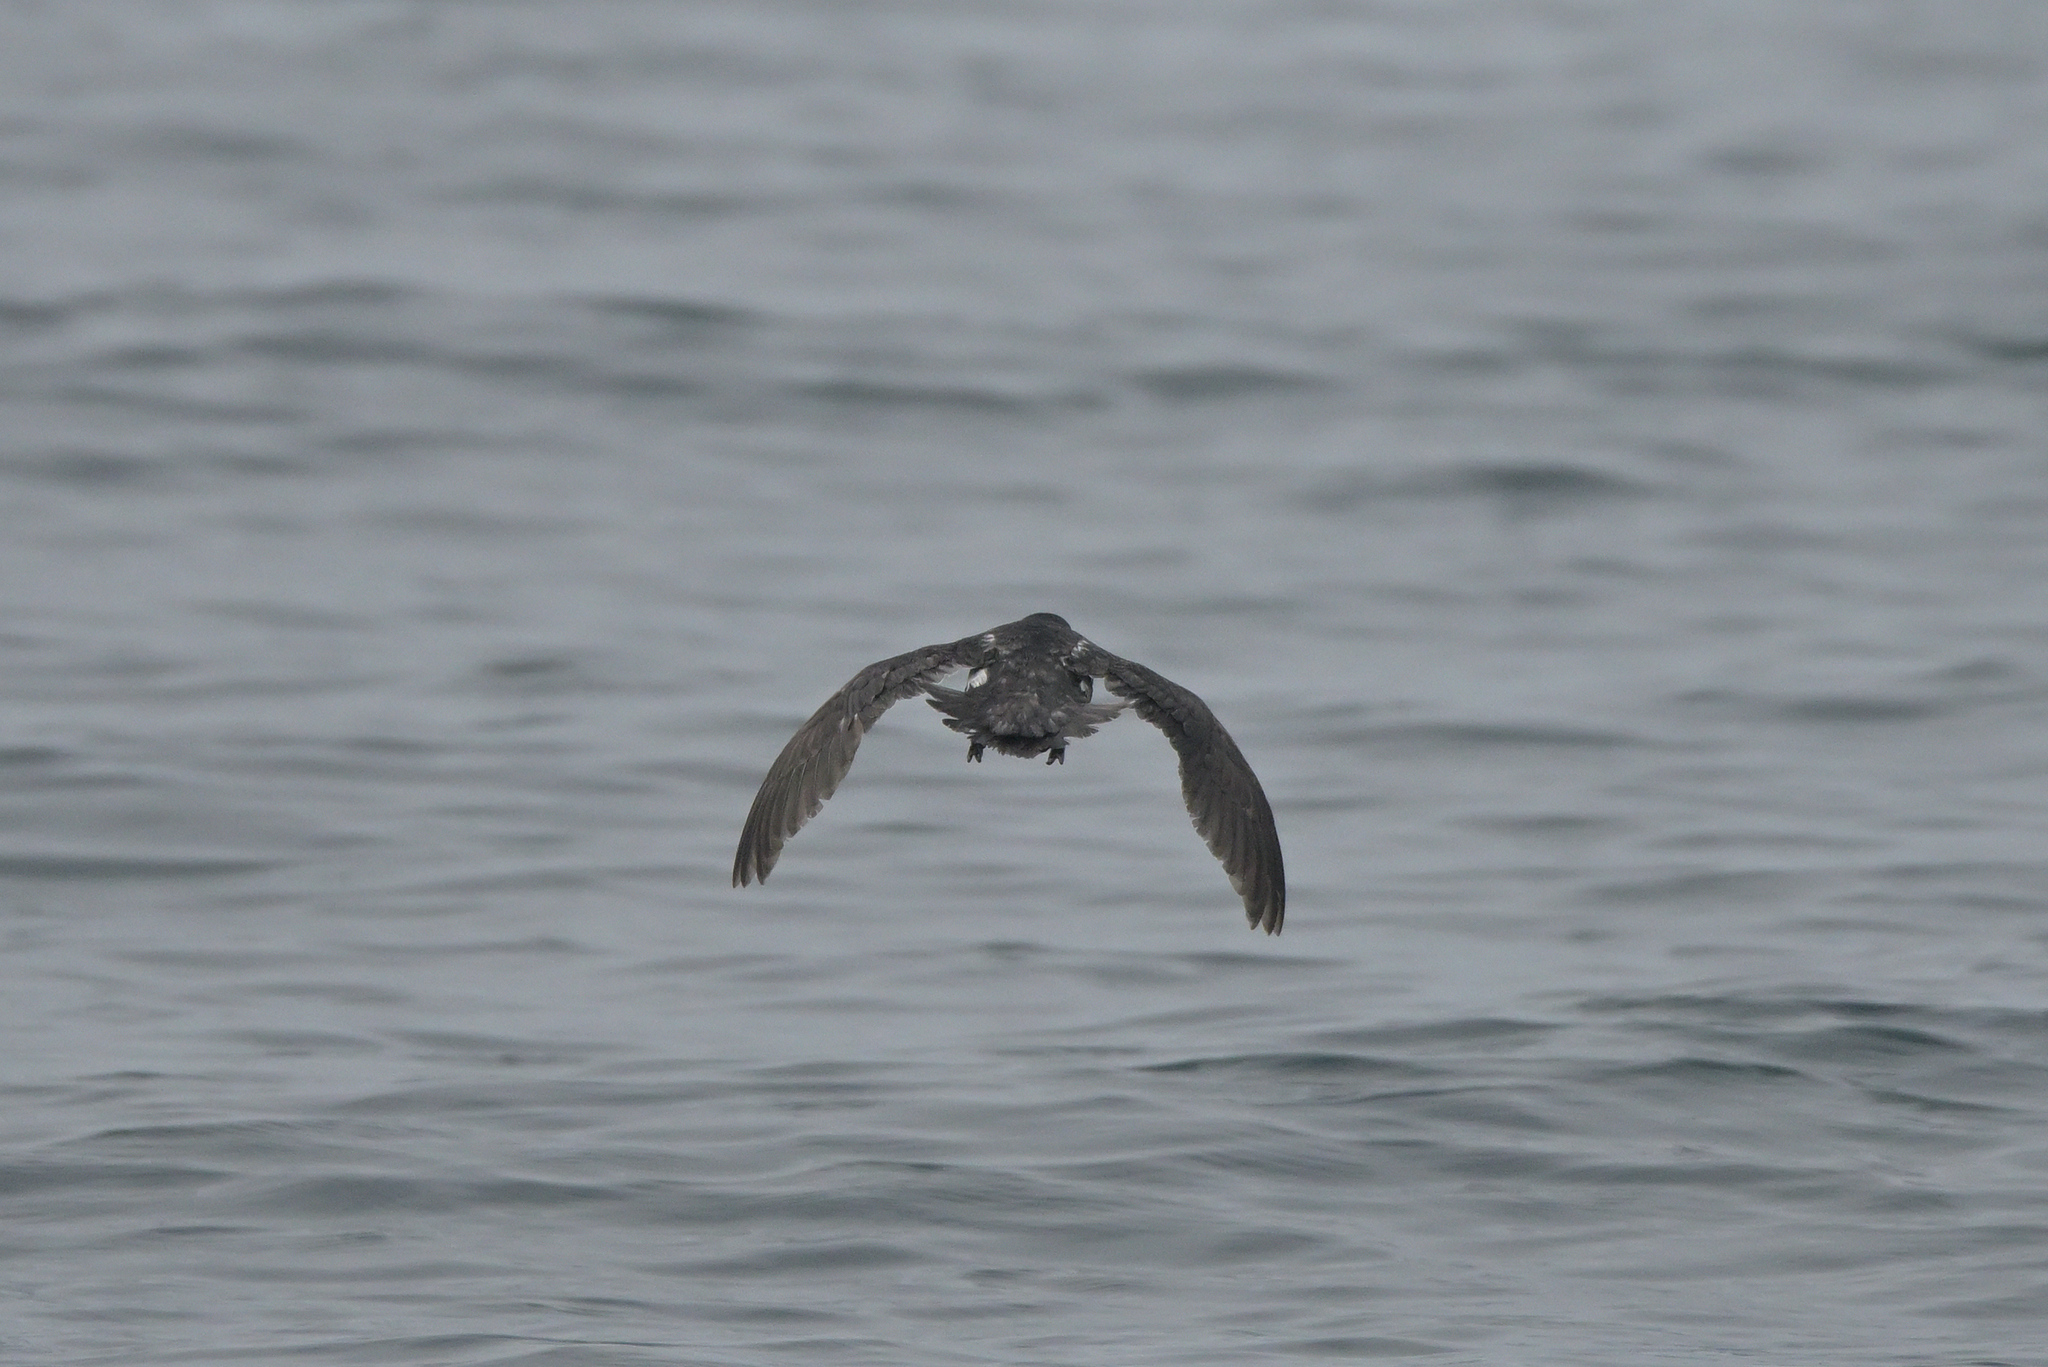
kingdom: Animalia
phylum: Chordata
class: Aves
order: Procellariiformes
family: Pelecanoididae
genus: Pelecanoides
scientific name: Pelecanoides urinatrix
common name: Common diving-petrel
